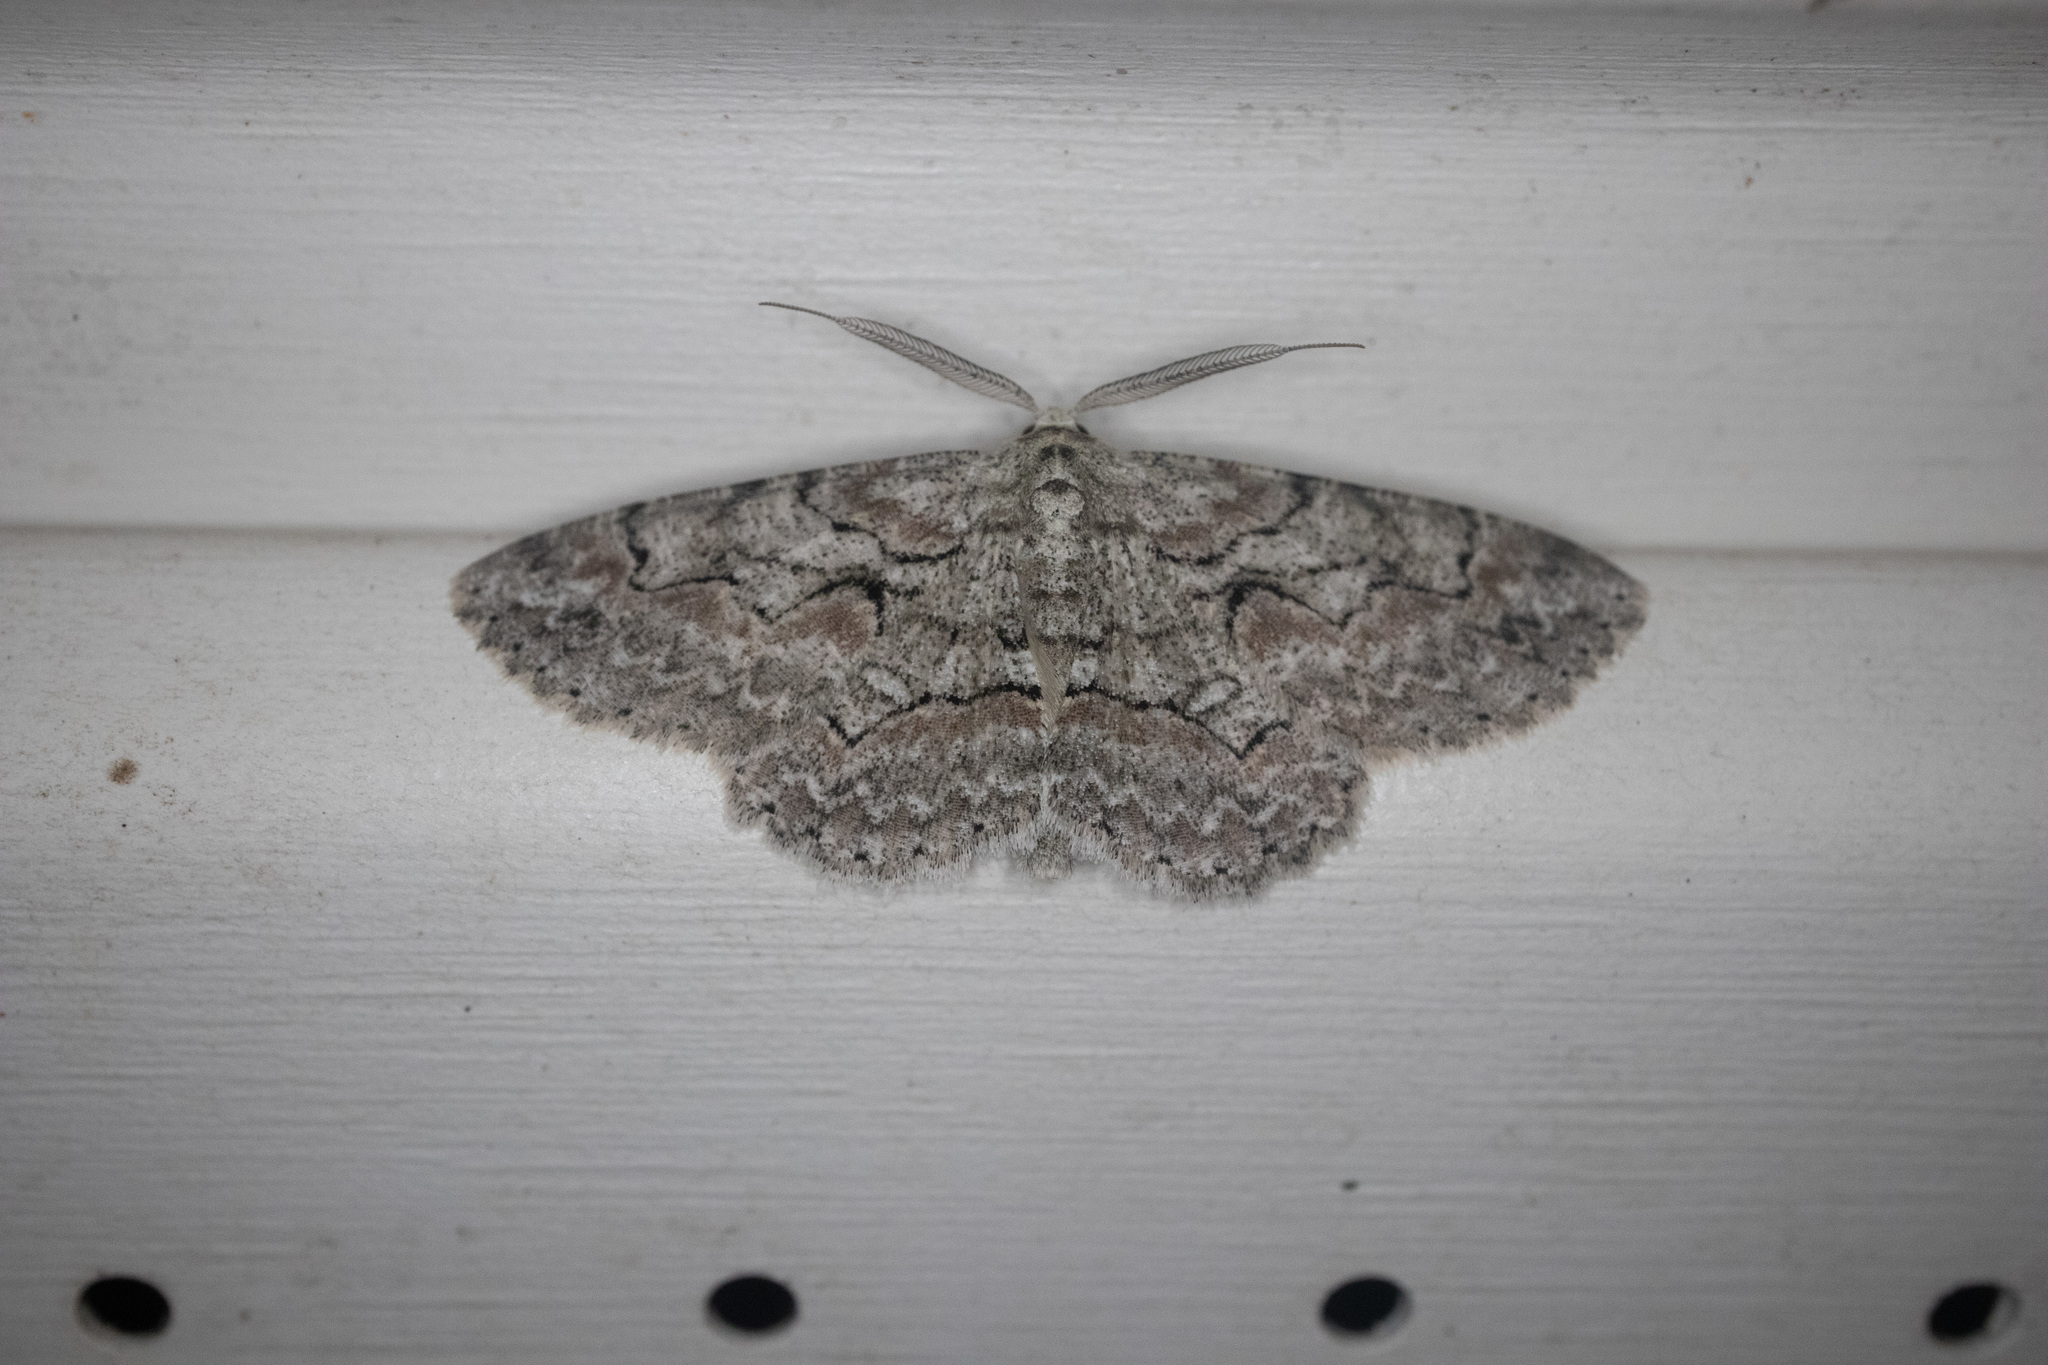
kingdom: Animalia
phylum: Arthropoda
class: Insecta
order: Lepidoptera
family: Geometridae
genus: Iridopsis
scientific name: Iridopsis defectaria
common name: Brown-shaded gray
